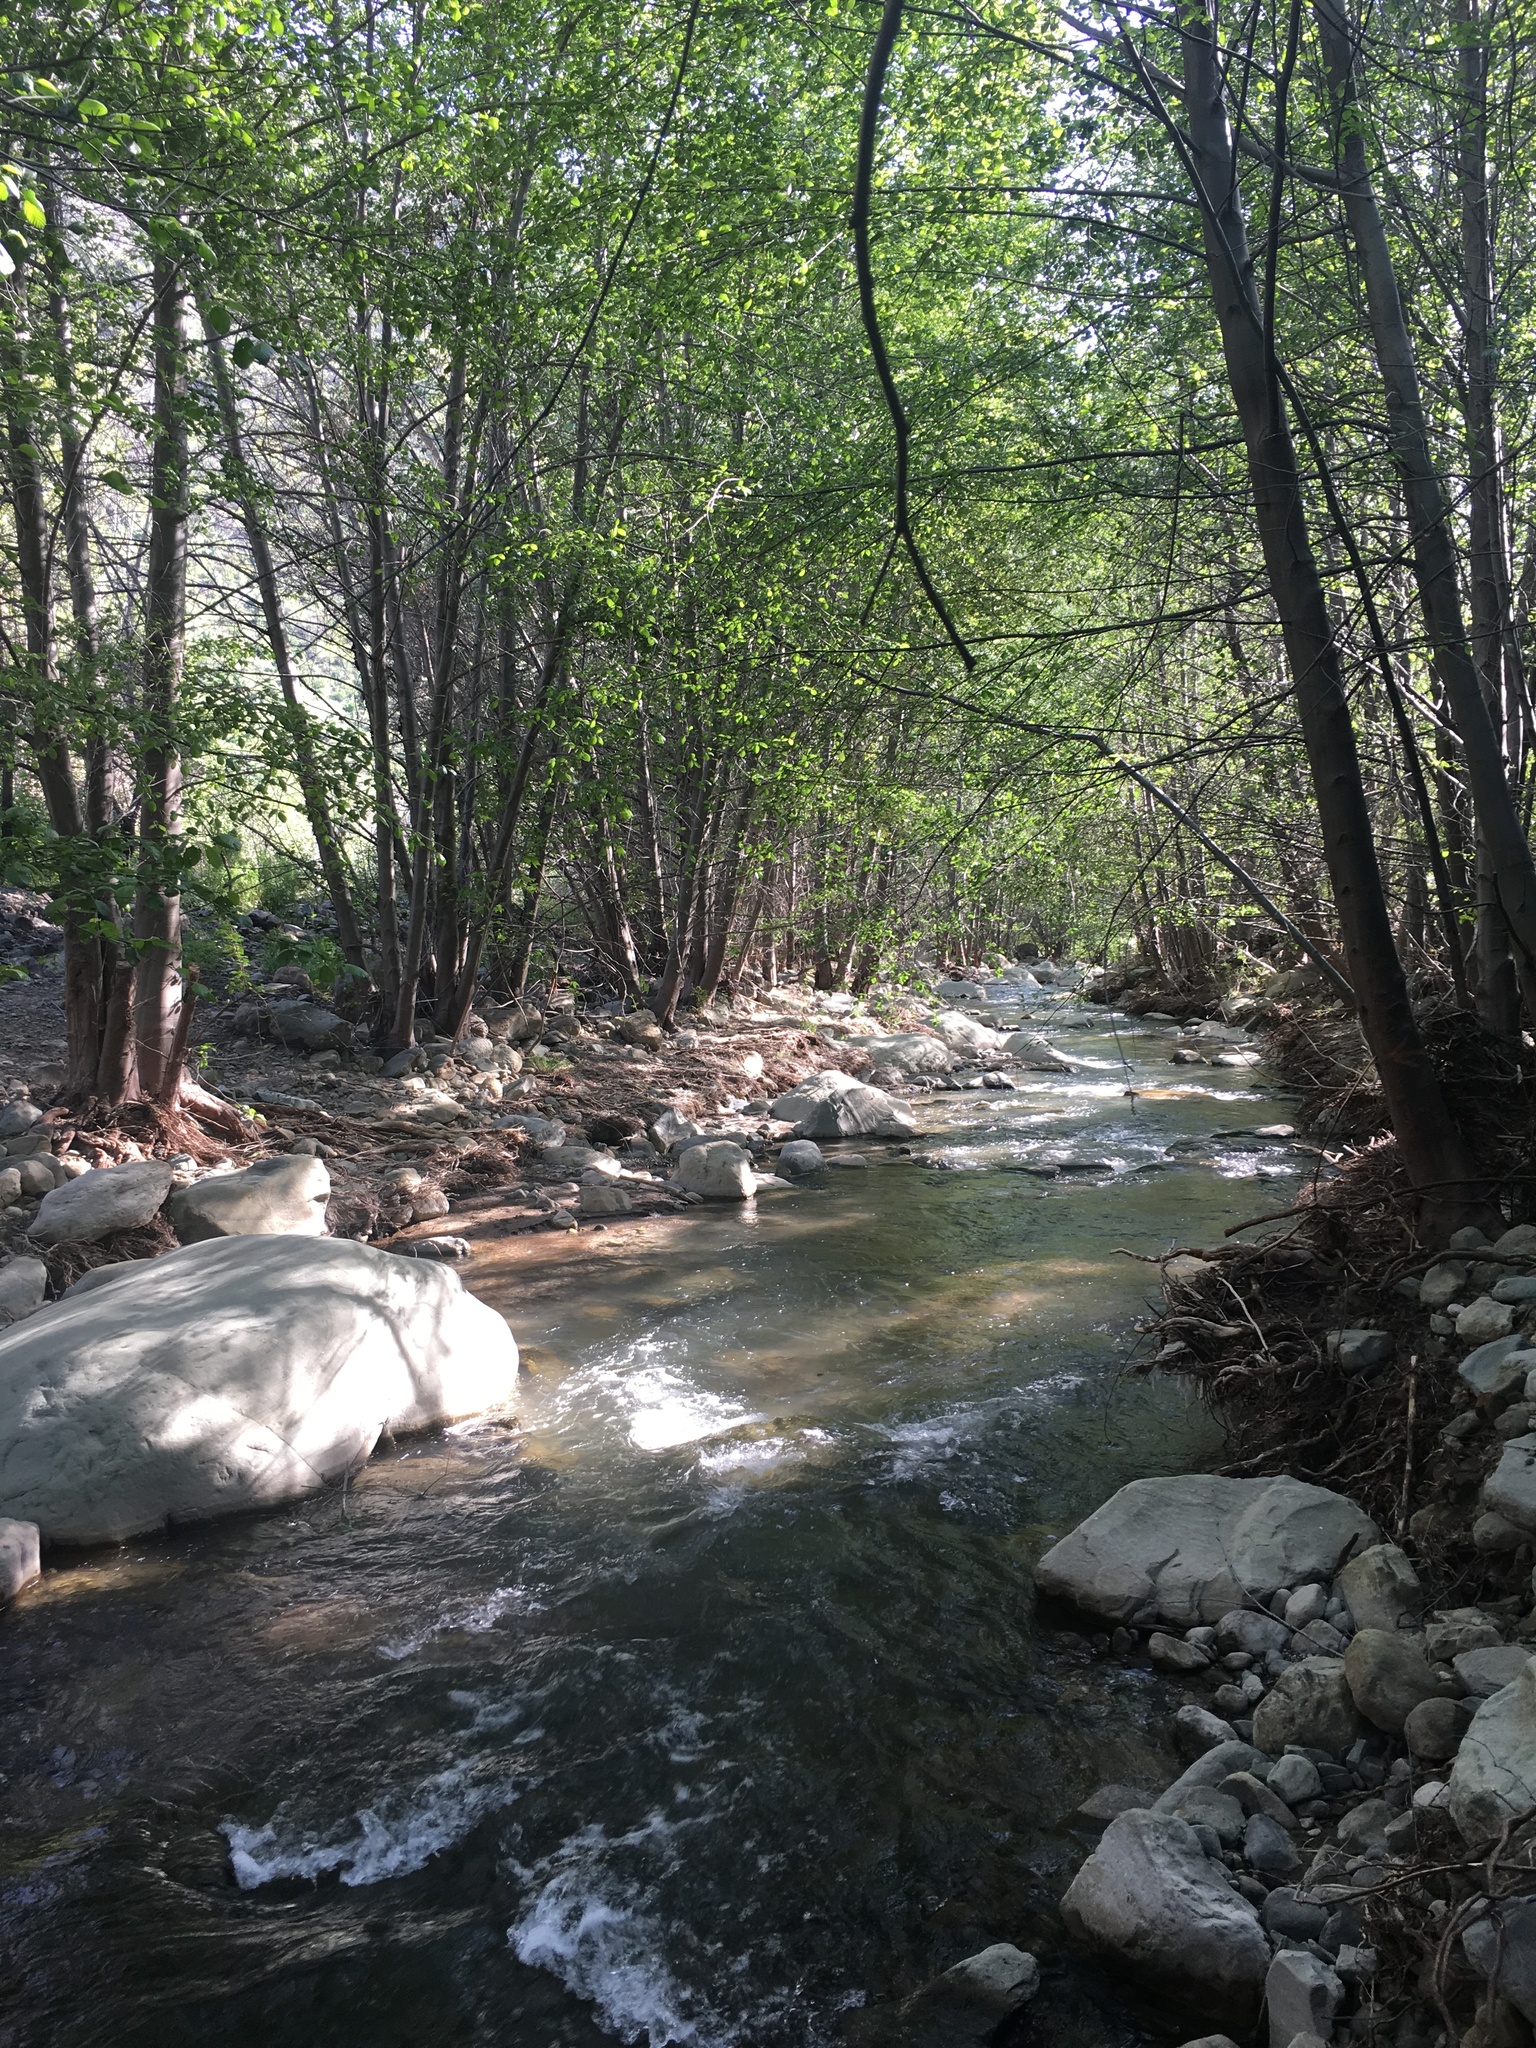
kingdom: Plantae
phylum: Tracheophyta
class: Magnoliopsida
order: Fagales
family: Betulaceae
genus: Alnus
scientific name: Alnus rhombifolia
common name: California alder
